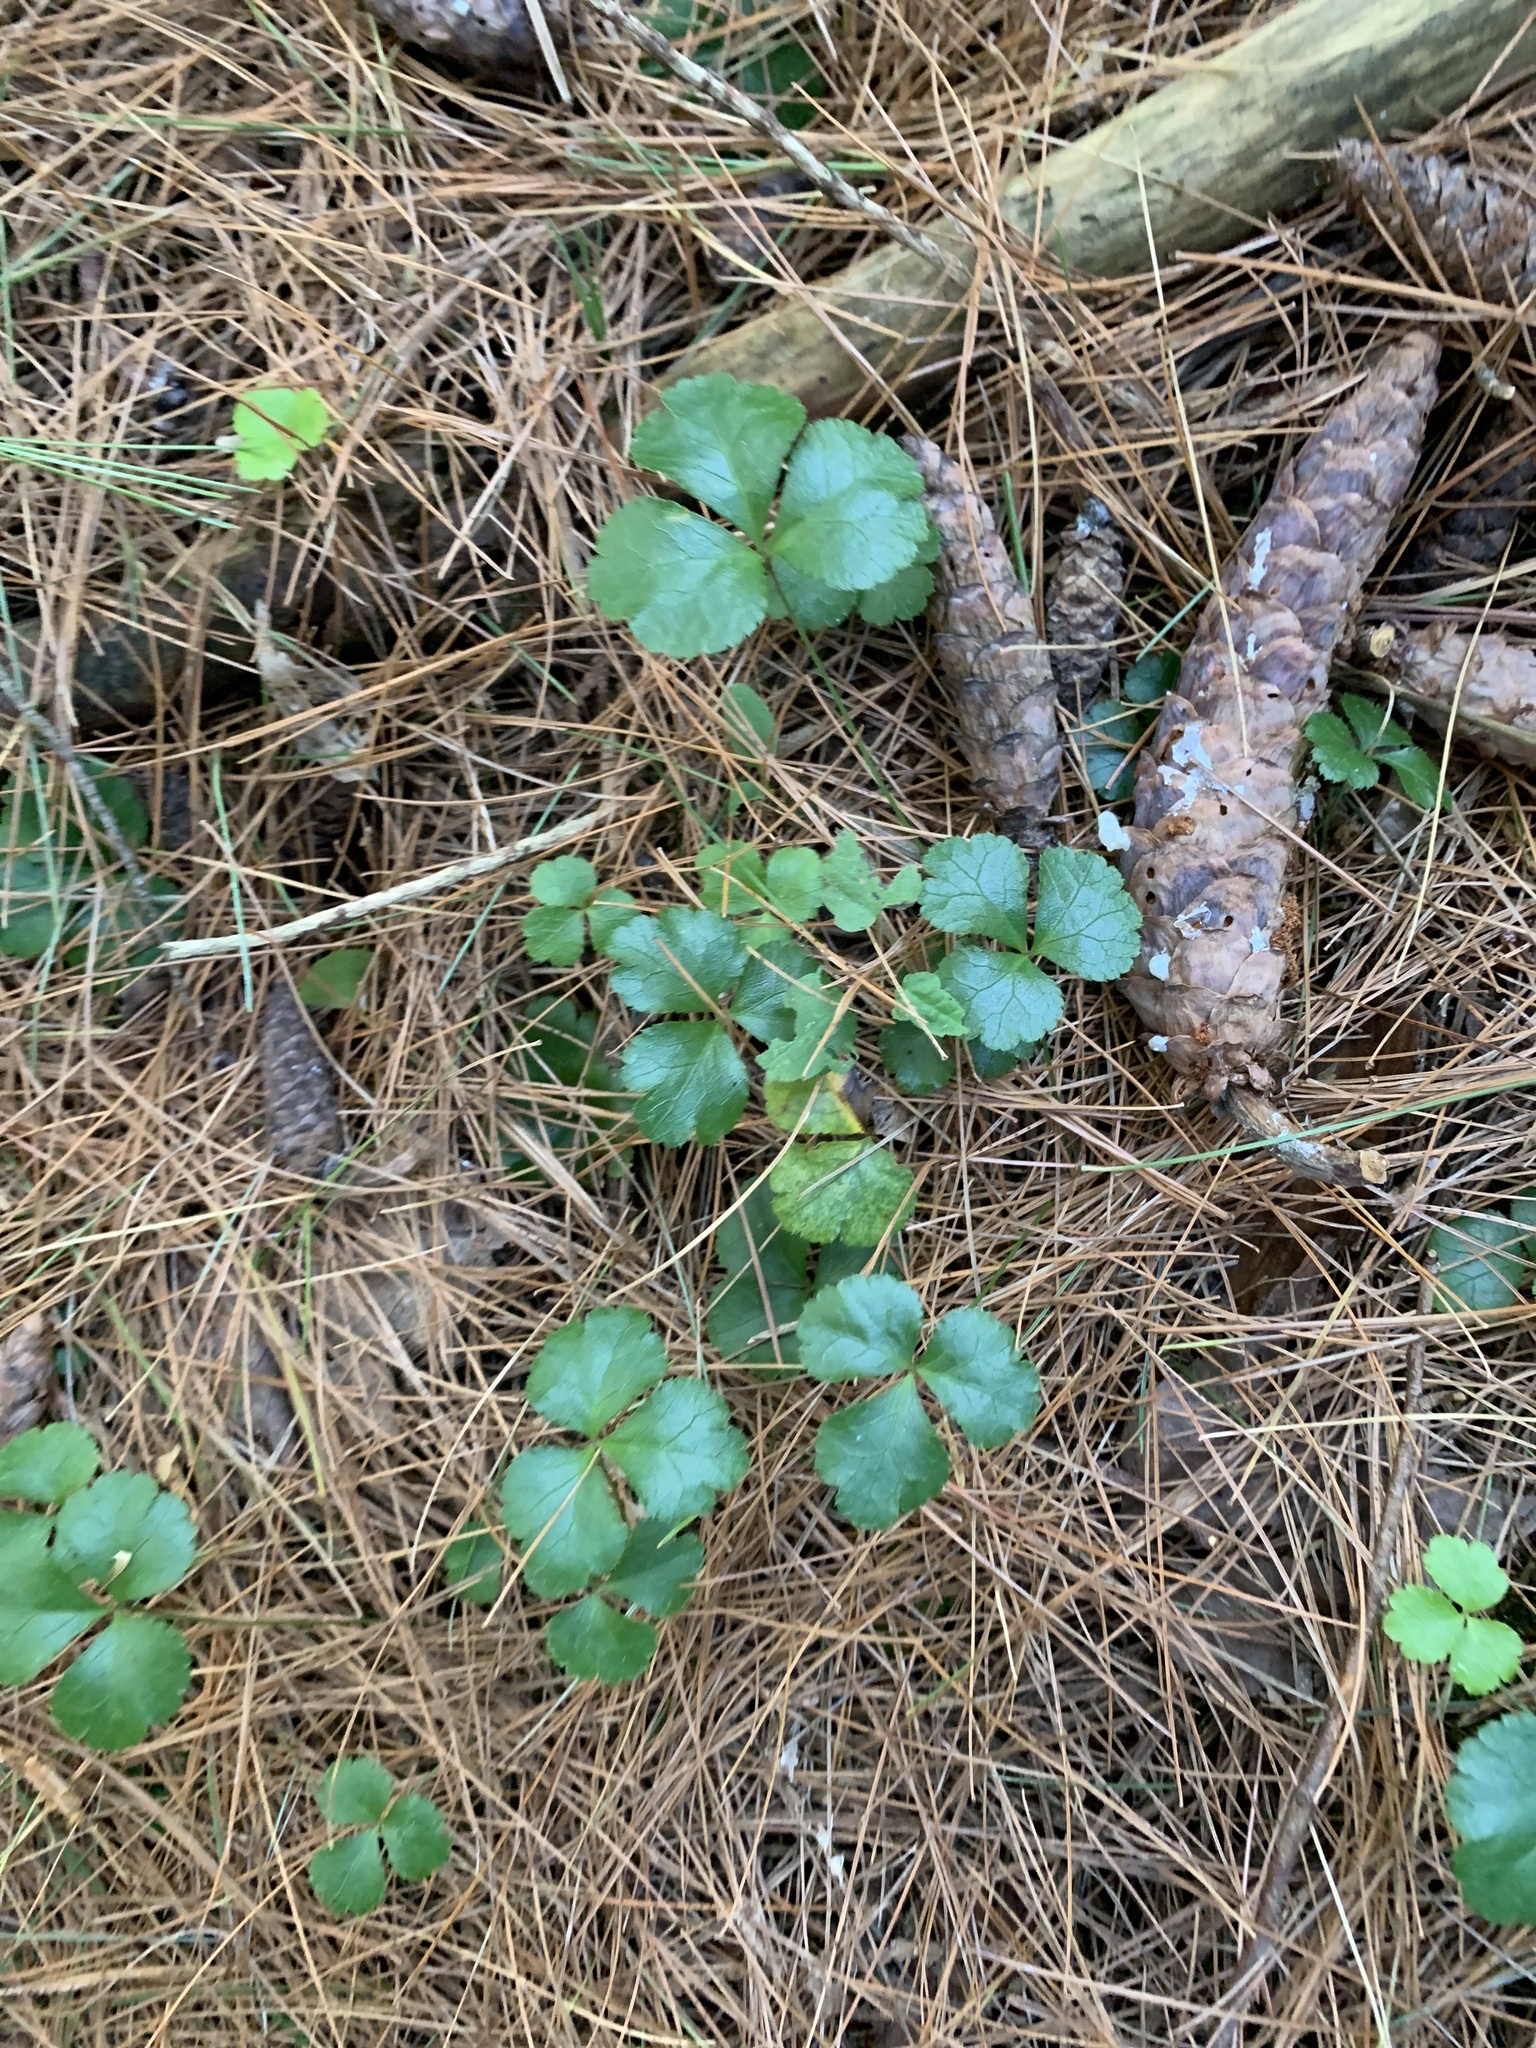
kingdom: Plantae
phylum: Tracheophyta
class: Magnoliopsida
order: Ranunculales
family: Ranunculaceae
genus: Coptis
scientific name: Coptis trifolia
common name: Canker-root
